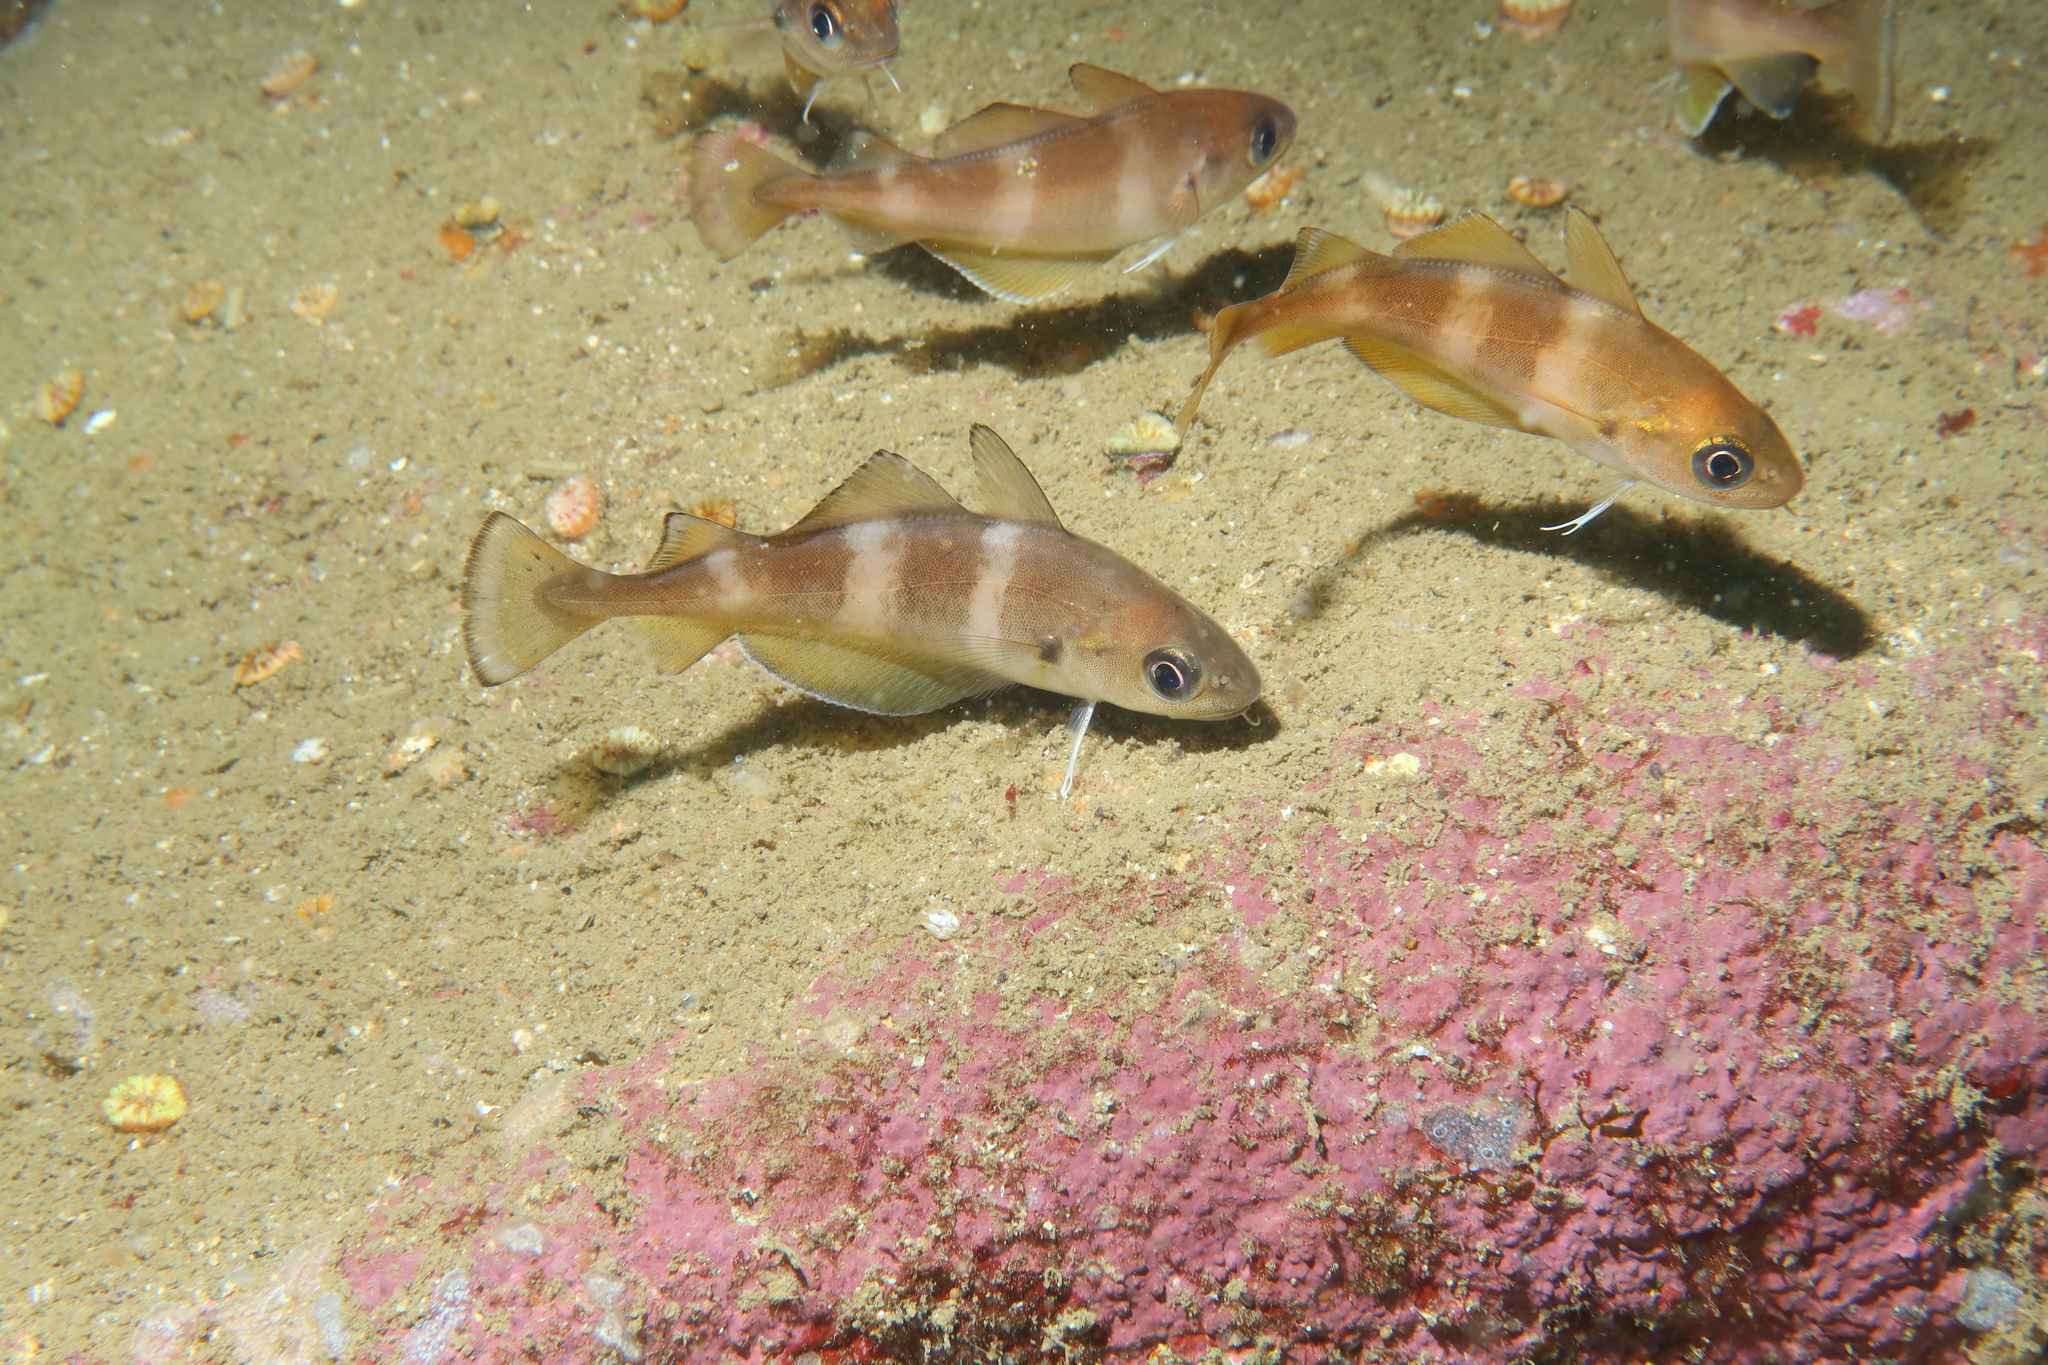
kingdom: Animalia
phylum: Chordata
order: Gadiformes
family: Gadidae
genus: Trisopterus
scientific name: Trisopterus luscus
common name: Bib
